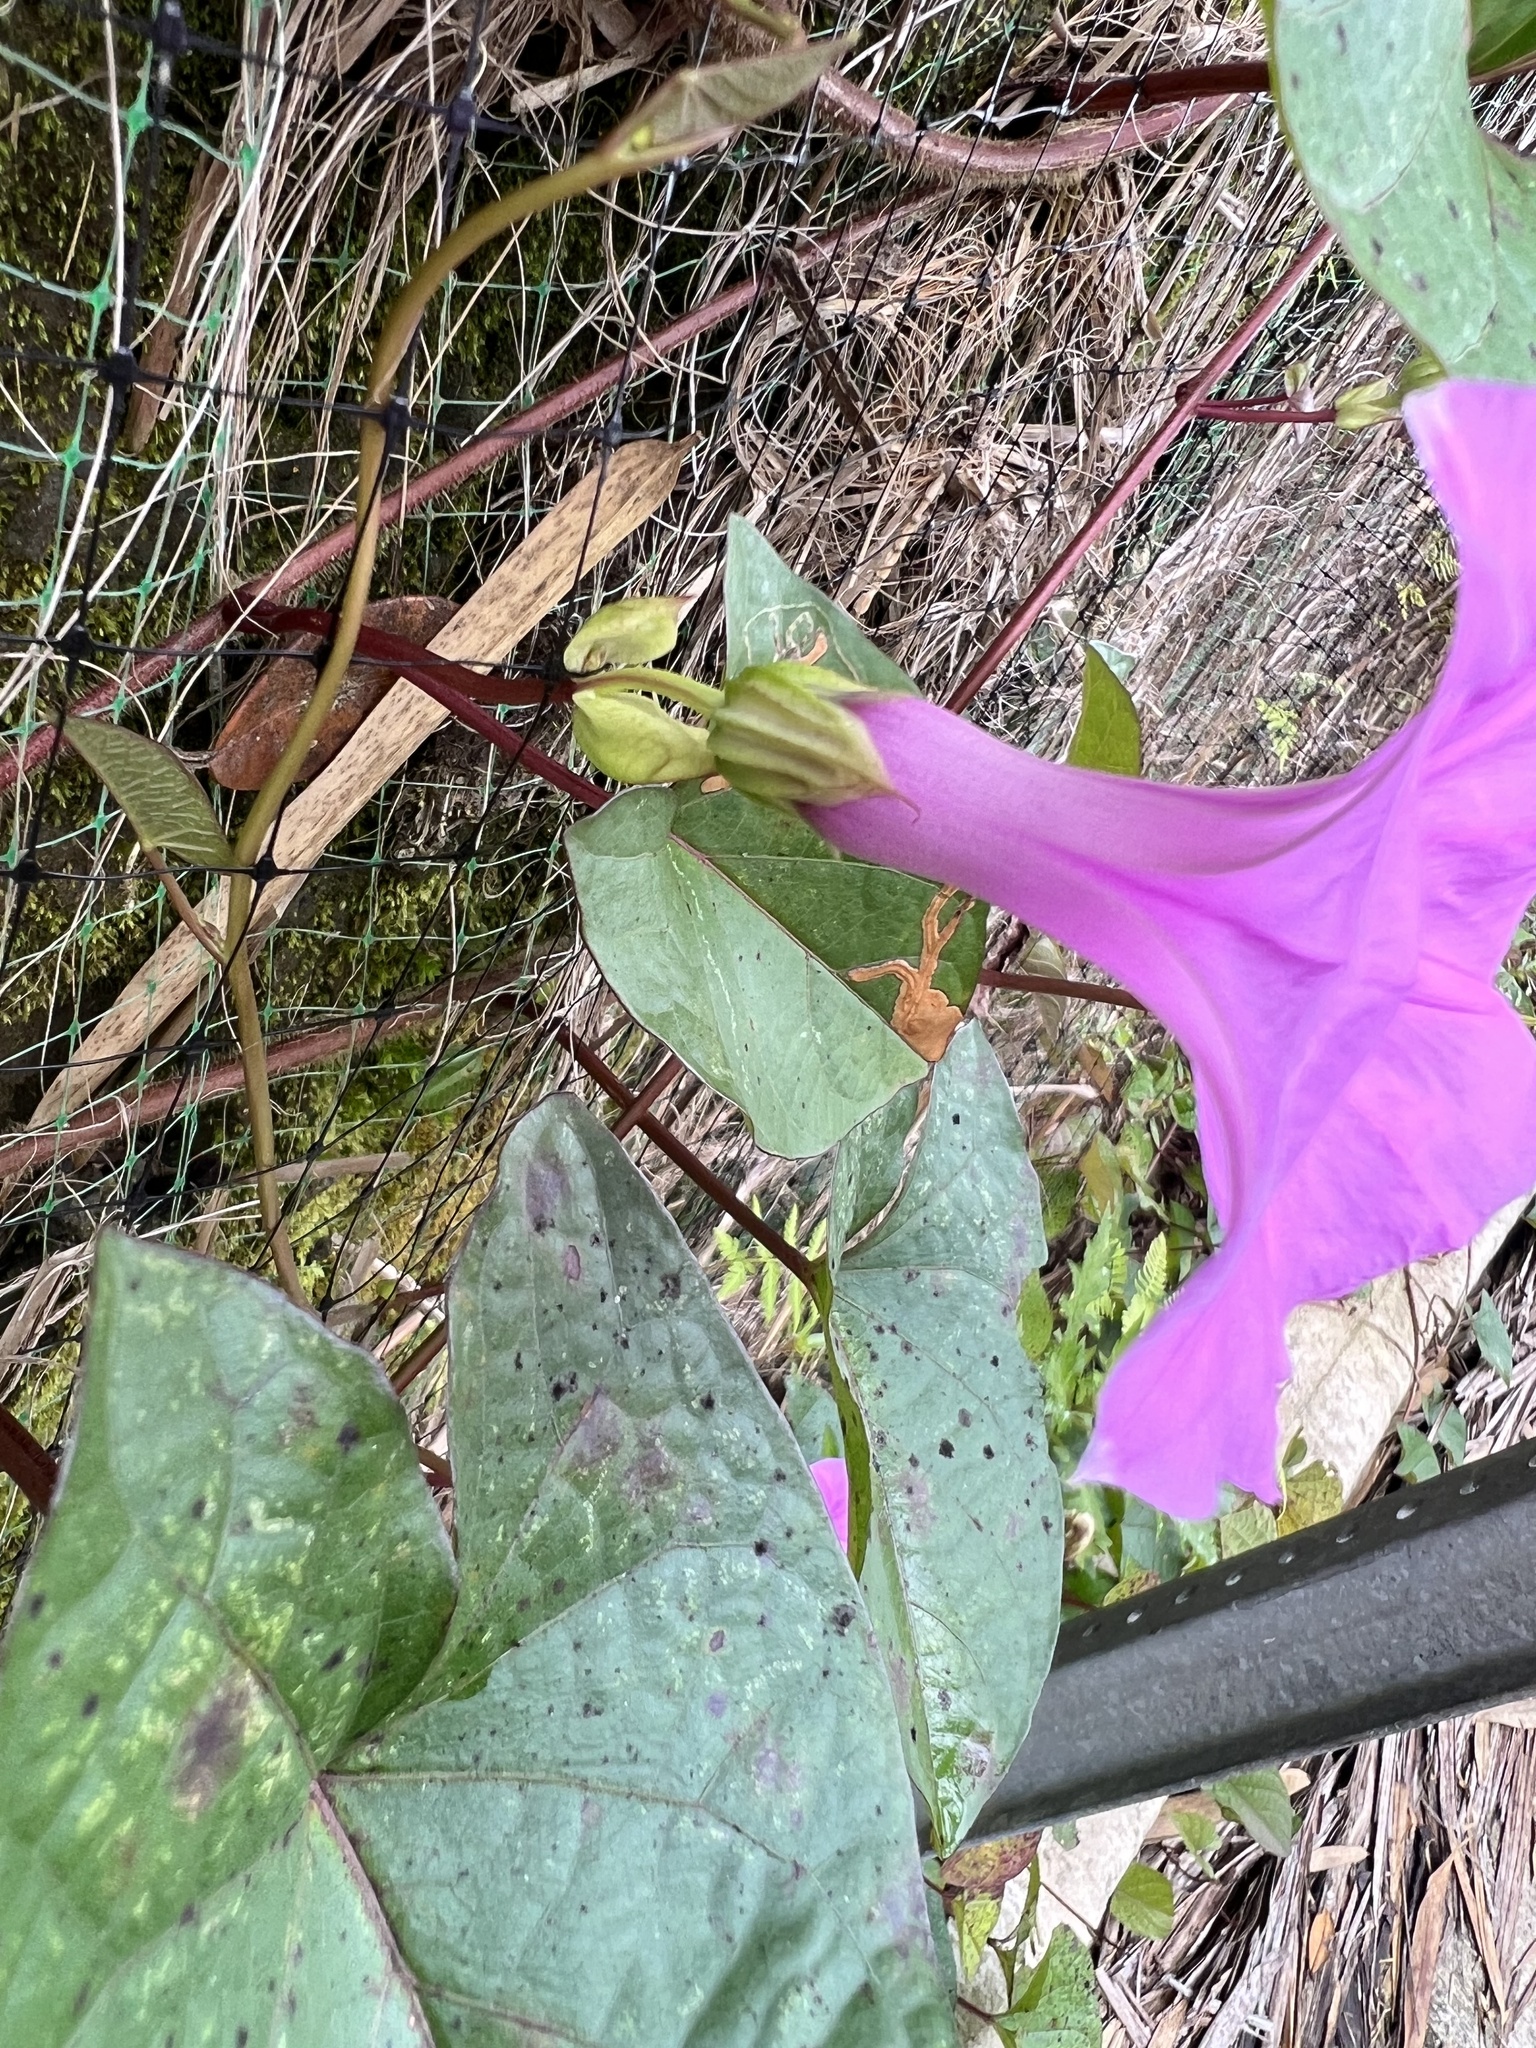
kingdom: Plantae
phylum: Tracheophyta
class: Magnoliopsida
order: Solanales
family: Convolvulaceae
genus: Ipomoea
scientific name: Ipomoea setifera
